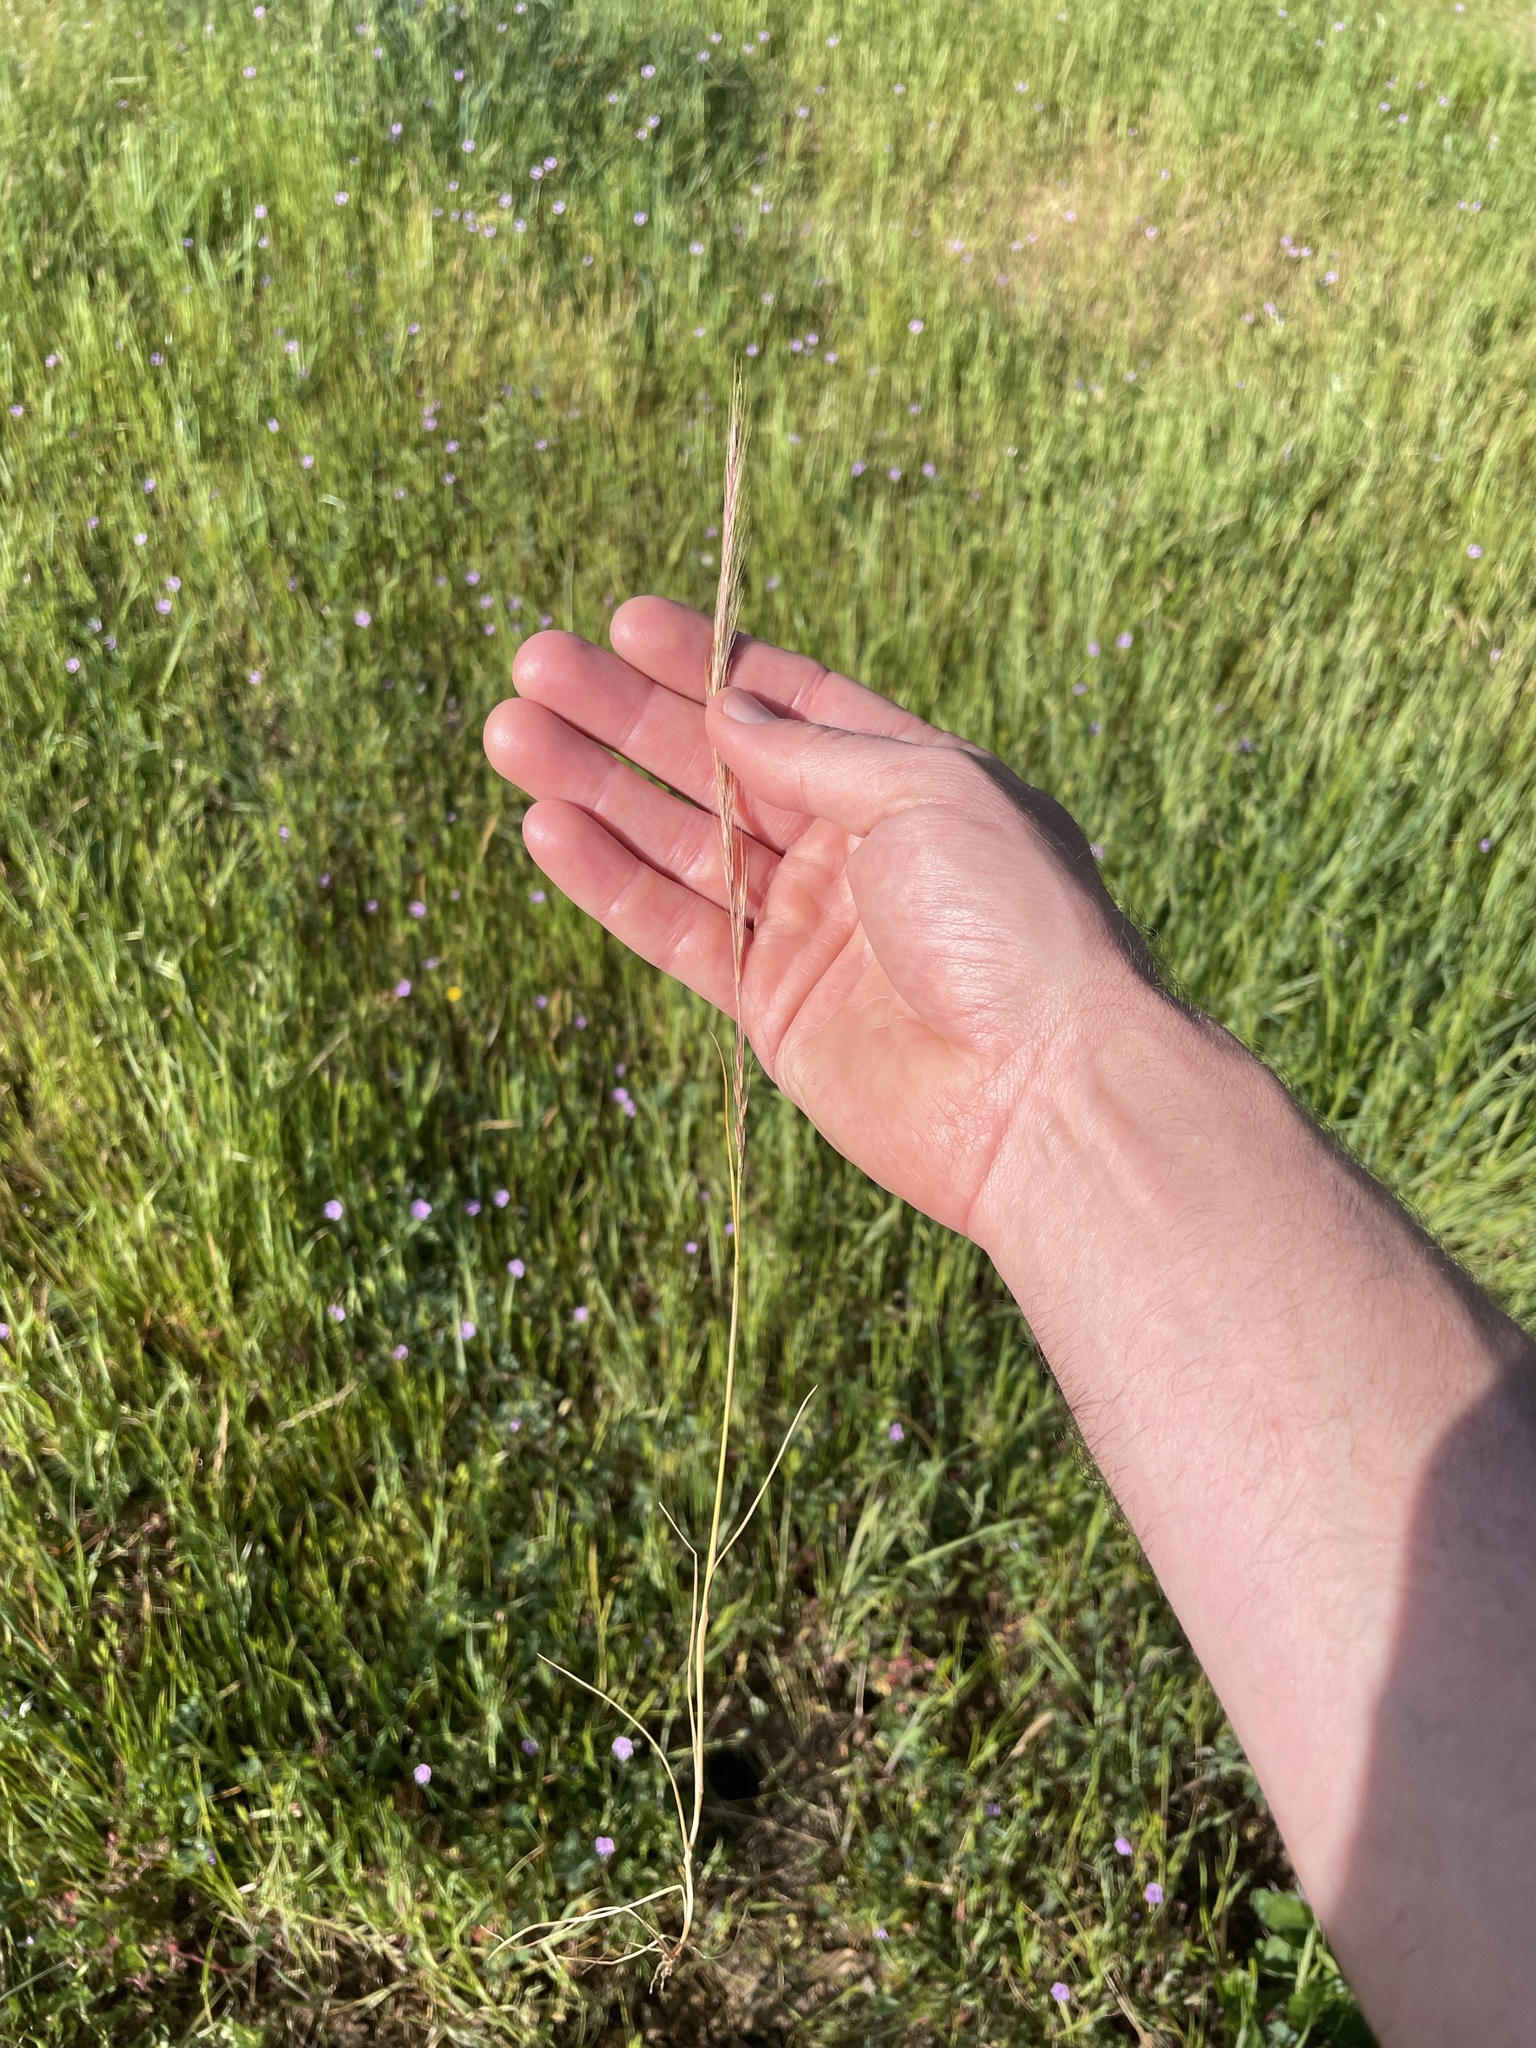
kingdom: Plantae
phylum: Tracheophyta
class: Liliopsida
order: Poales
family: Poaceae
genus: Festuca
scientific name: Festuca myuros
